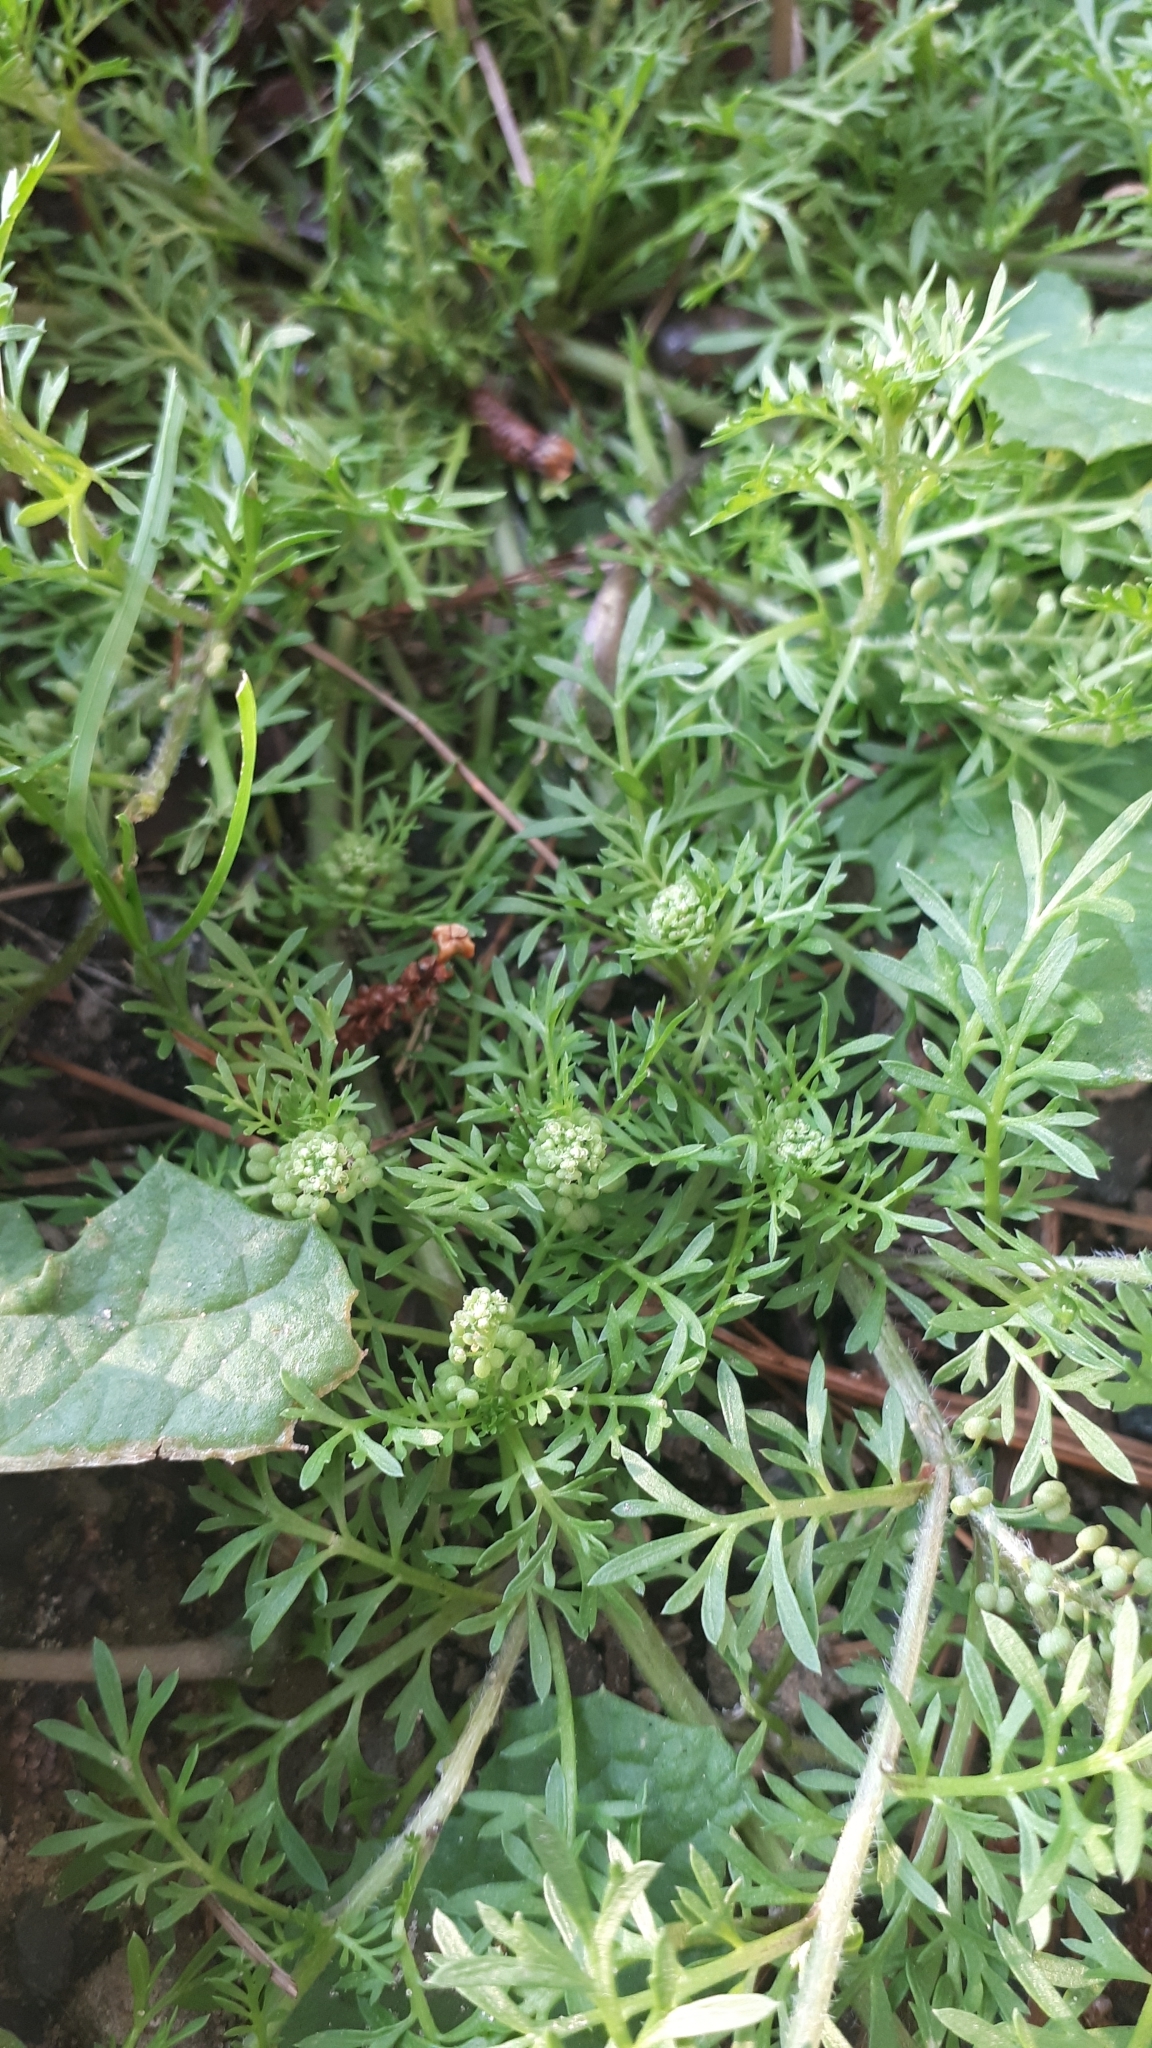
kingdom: Plantae
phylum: Tracheophyta
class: Magnoliopsida
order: Brassicales
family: Brassicaceae
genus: Lepidium
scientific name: Lepidium didymum
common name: Lesser swinecress
